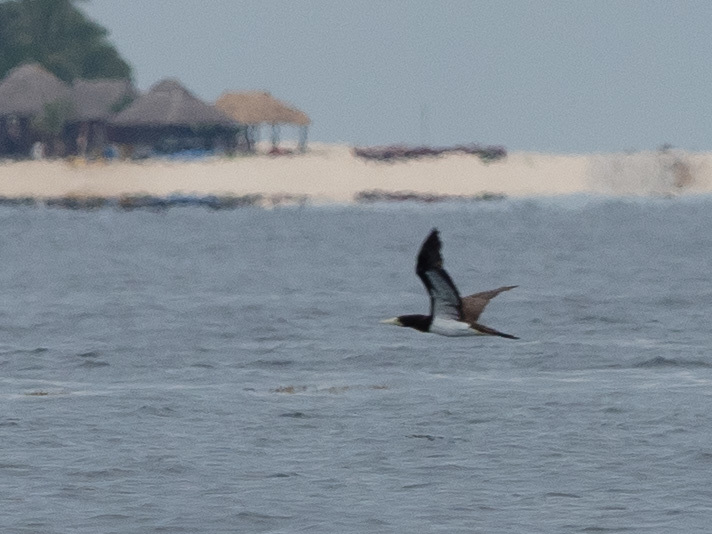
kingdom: Animalia
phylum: Chordata
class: Aves
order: Suliformes
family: Sulidae
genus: Sula
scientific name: Sula leucogaster
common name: Brown booby
